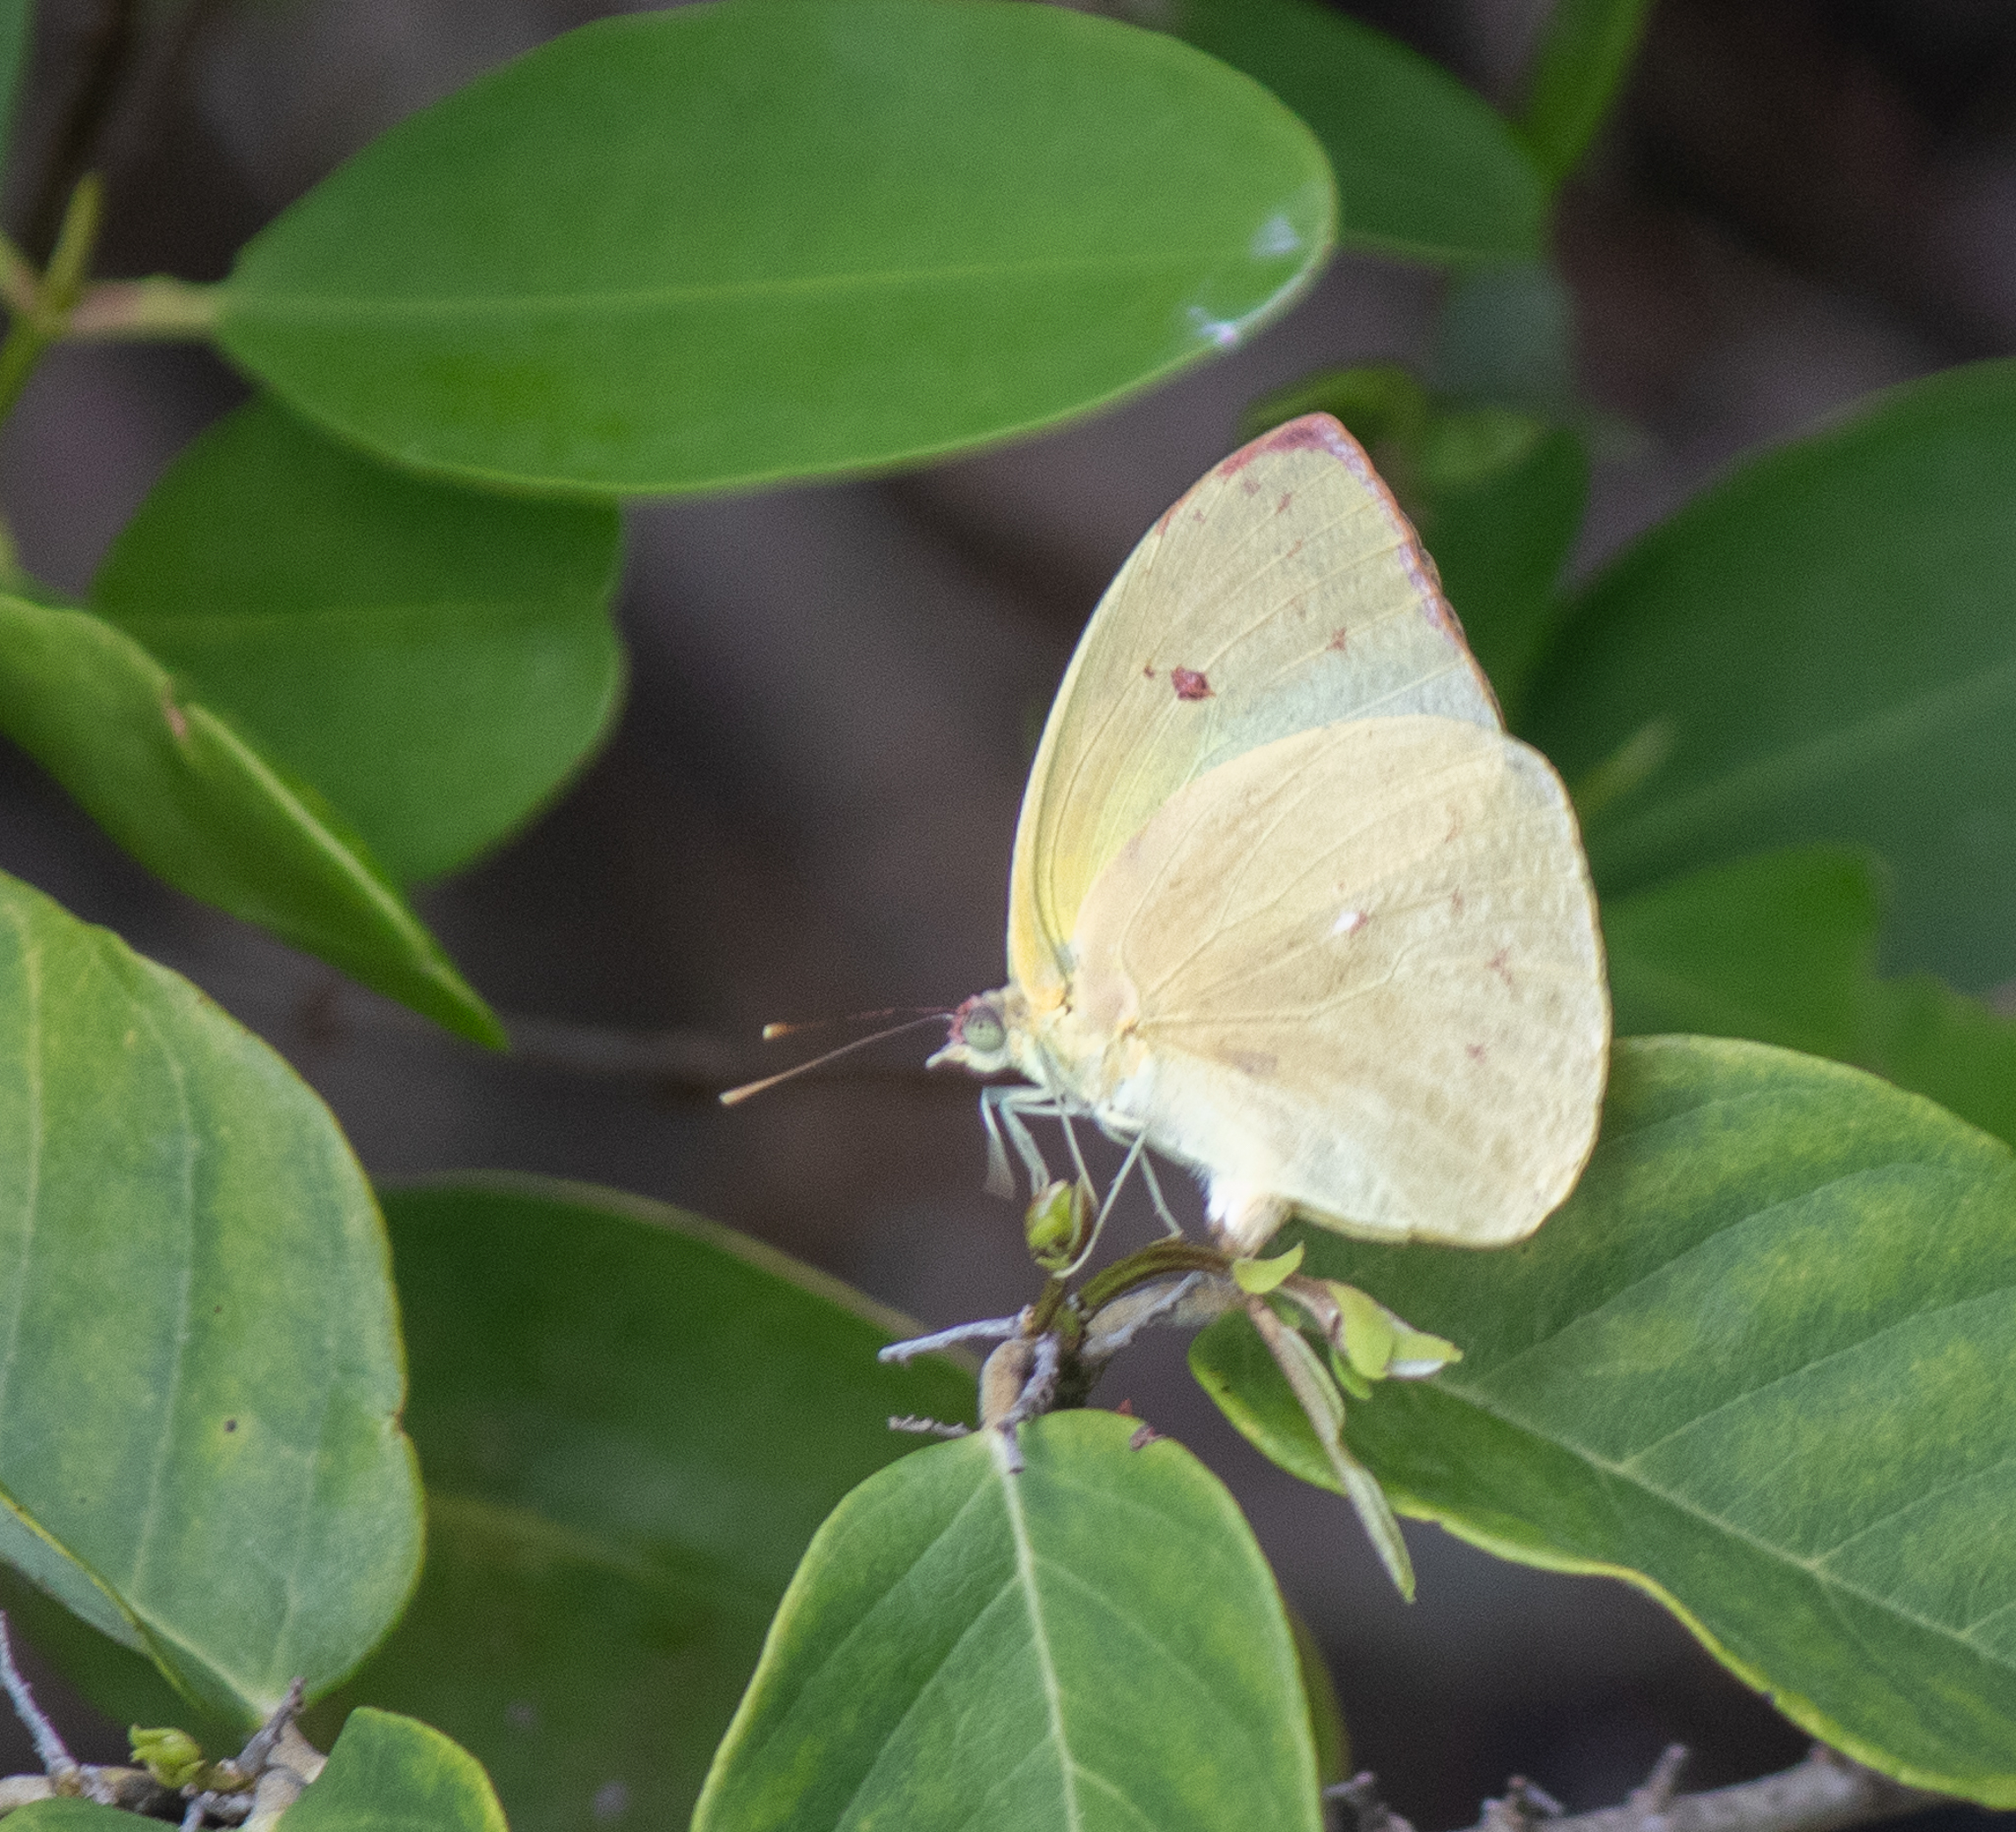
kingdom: Animalia
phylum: Arthropoda
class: Insecta
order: Lepidoptera
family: Pieridae
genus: Aphrissa
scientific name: Aphrissa statira
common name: Statira sulphur
